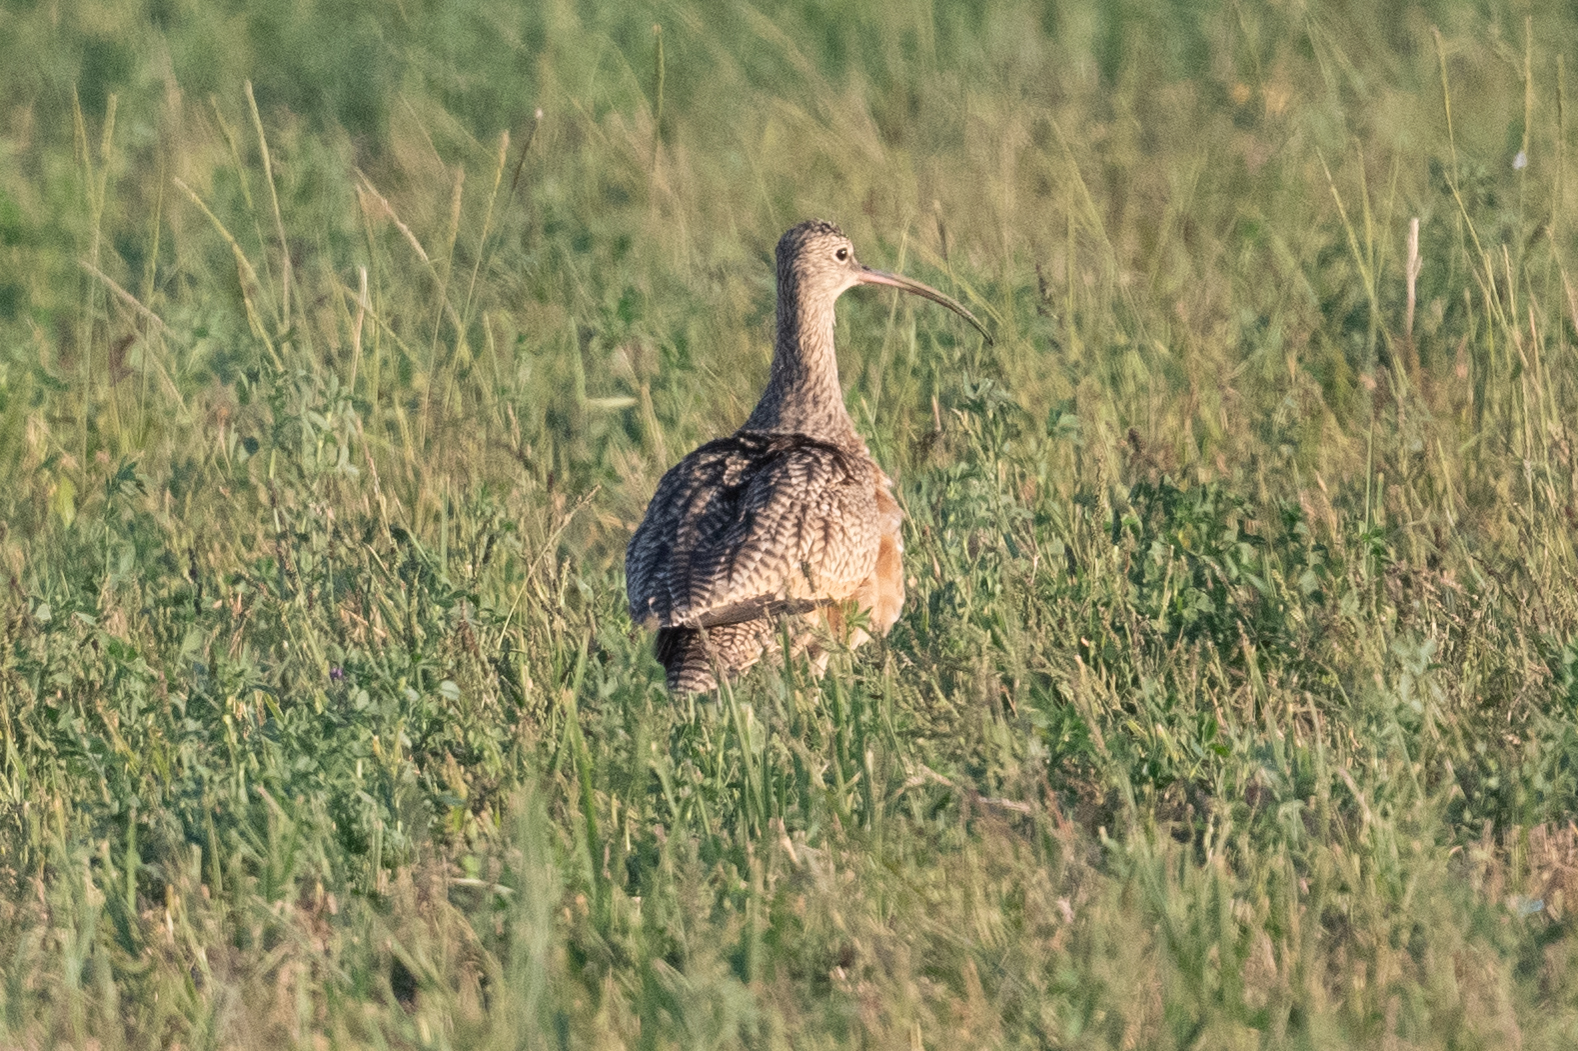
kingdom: Animalia
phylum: Chordata
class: Aves
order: Charadriiformes
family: Scolopacidae
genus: Numenius
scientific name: Numenius americanus
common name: Long-billed curlew
